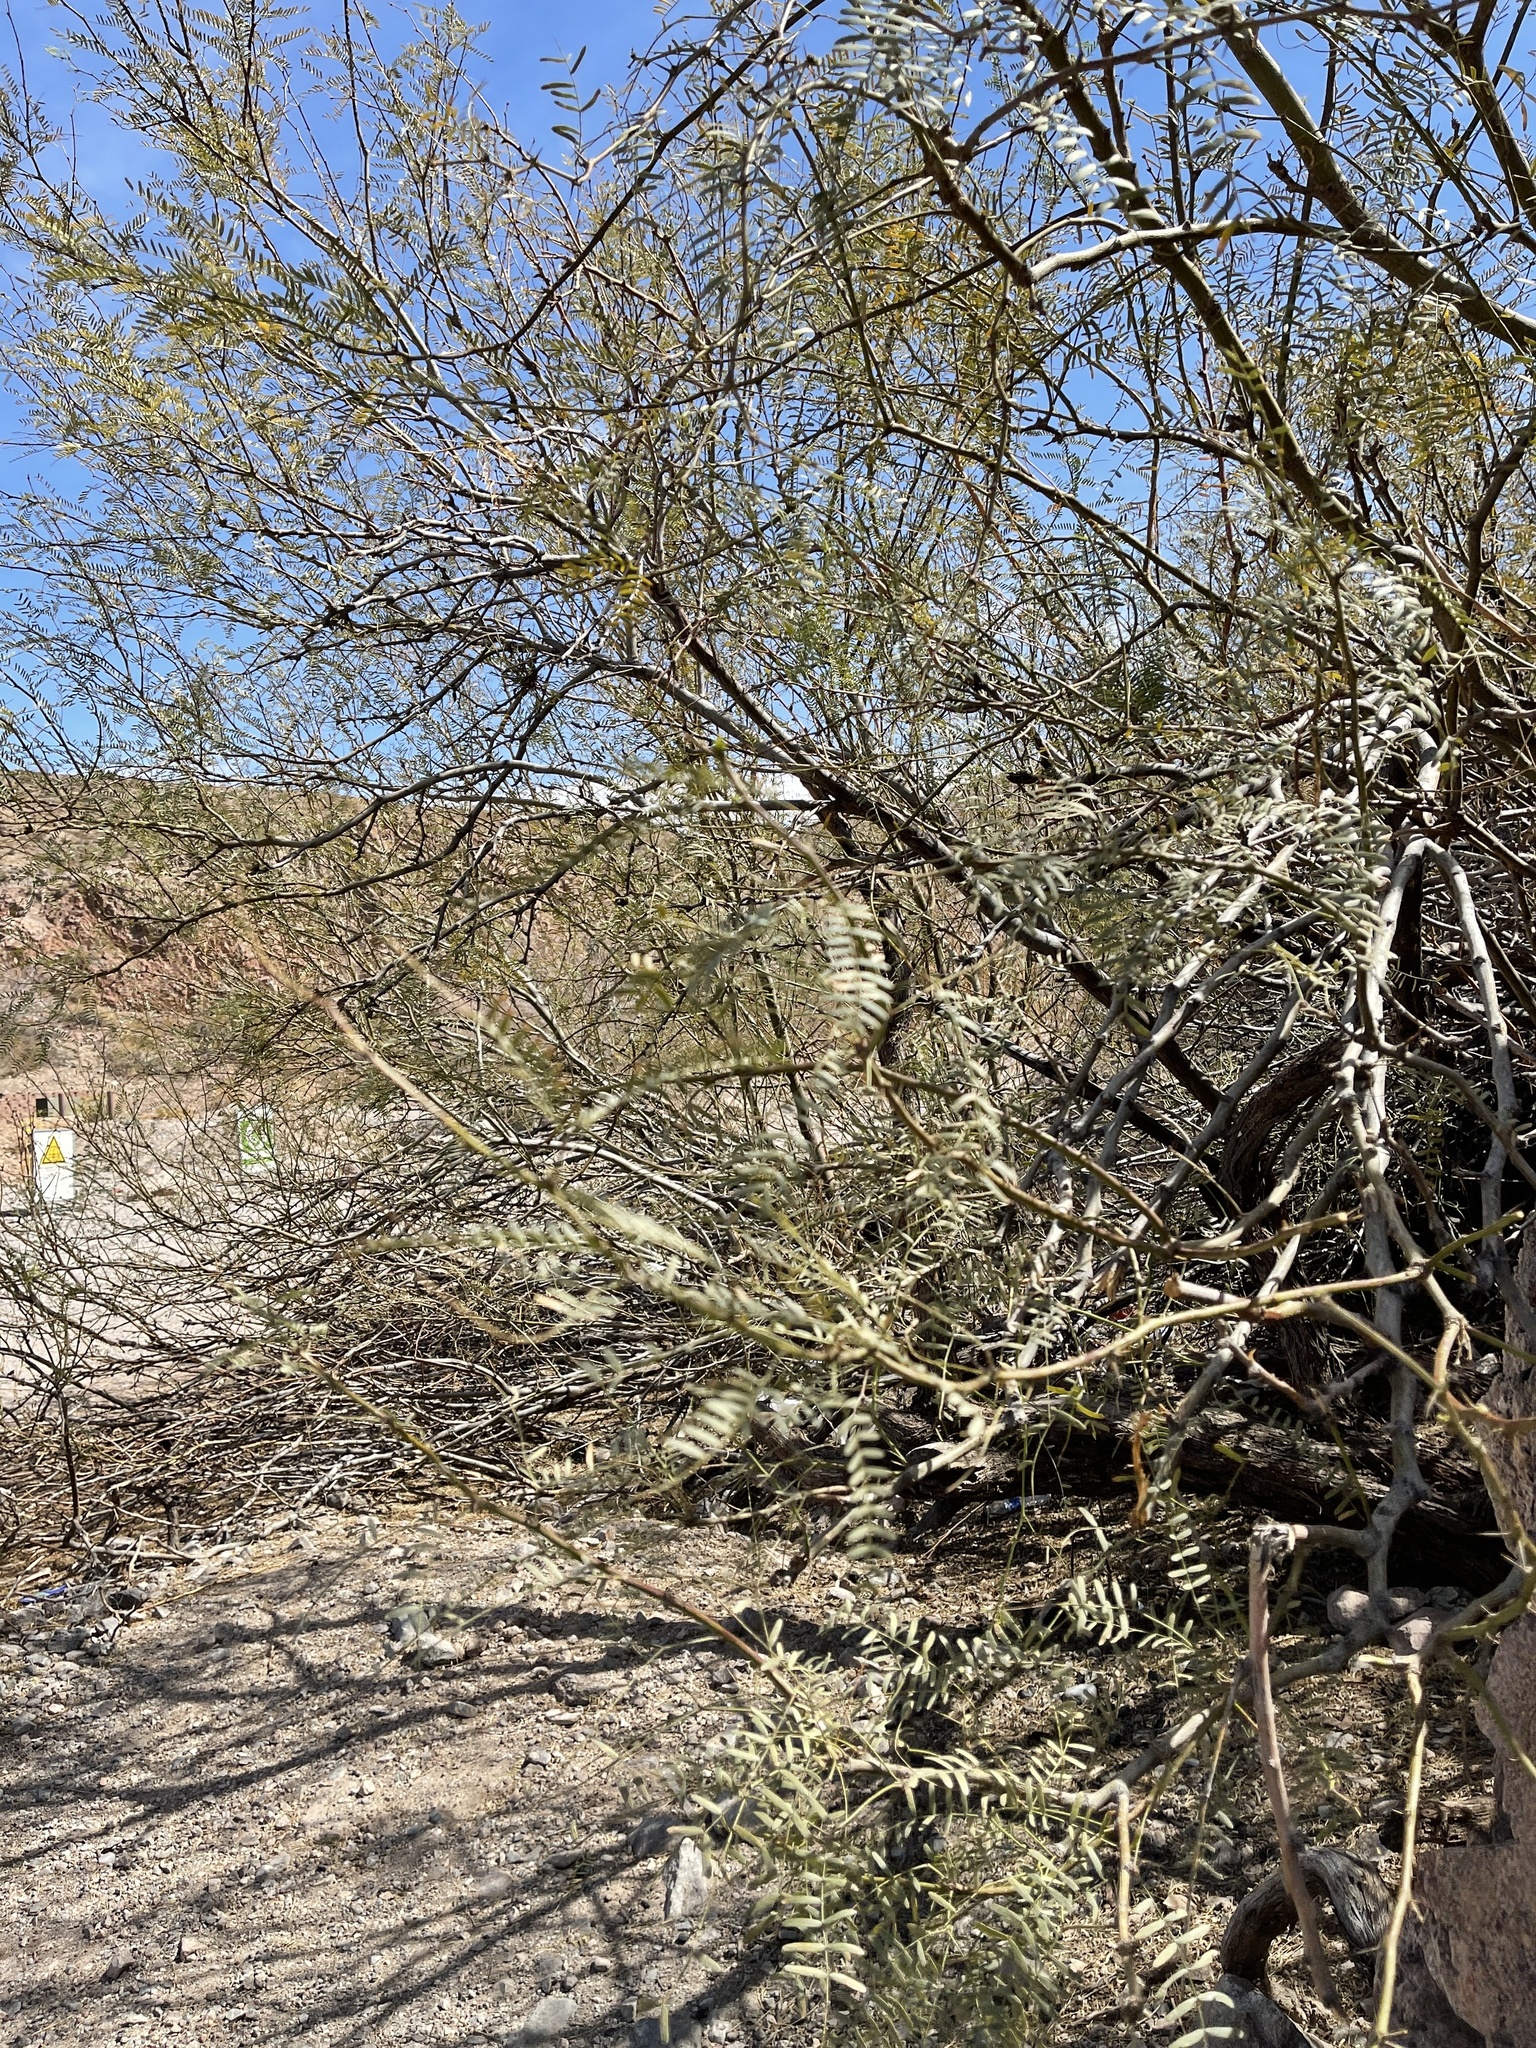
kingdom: Plantae
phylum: Tracheophyta
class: Magnoliopsida
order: Fabales
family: Fabaceae
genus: Prosopis
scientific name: Prosopis velutina
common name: Velvet mesquite
